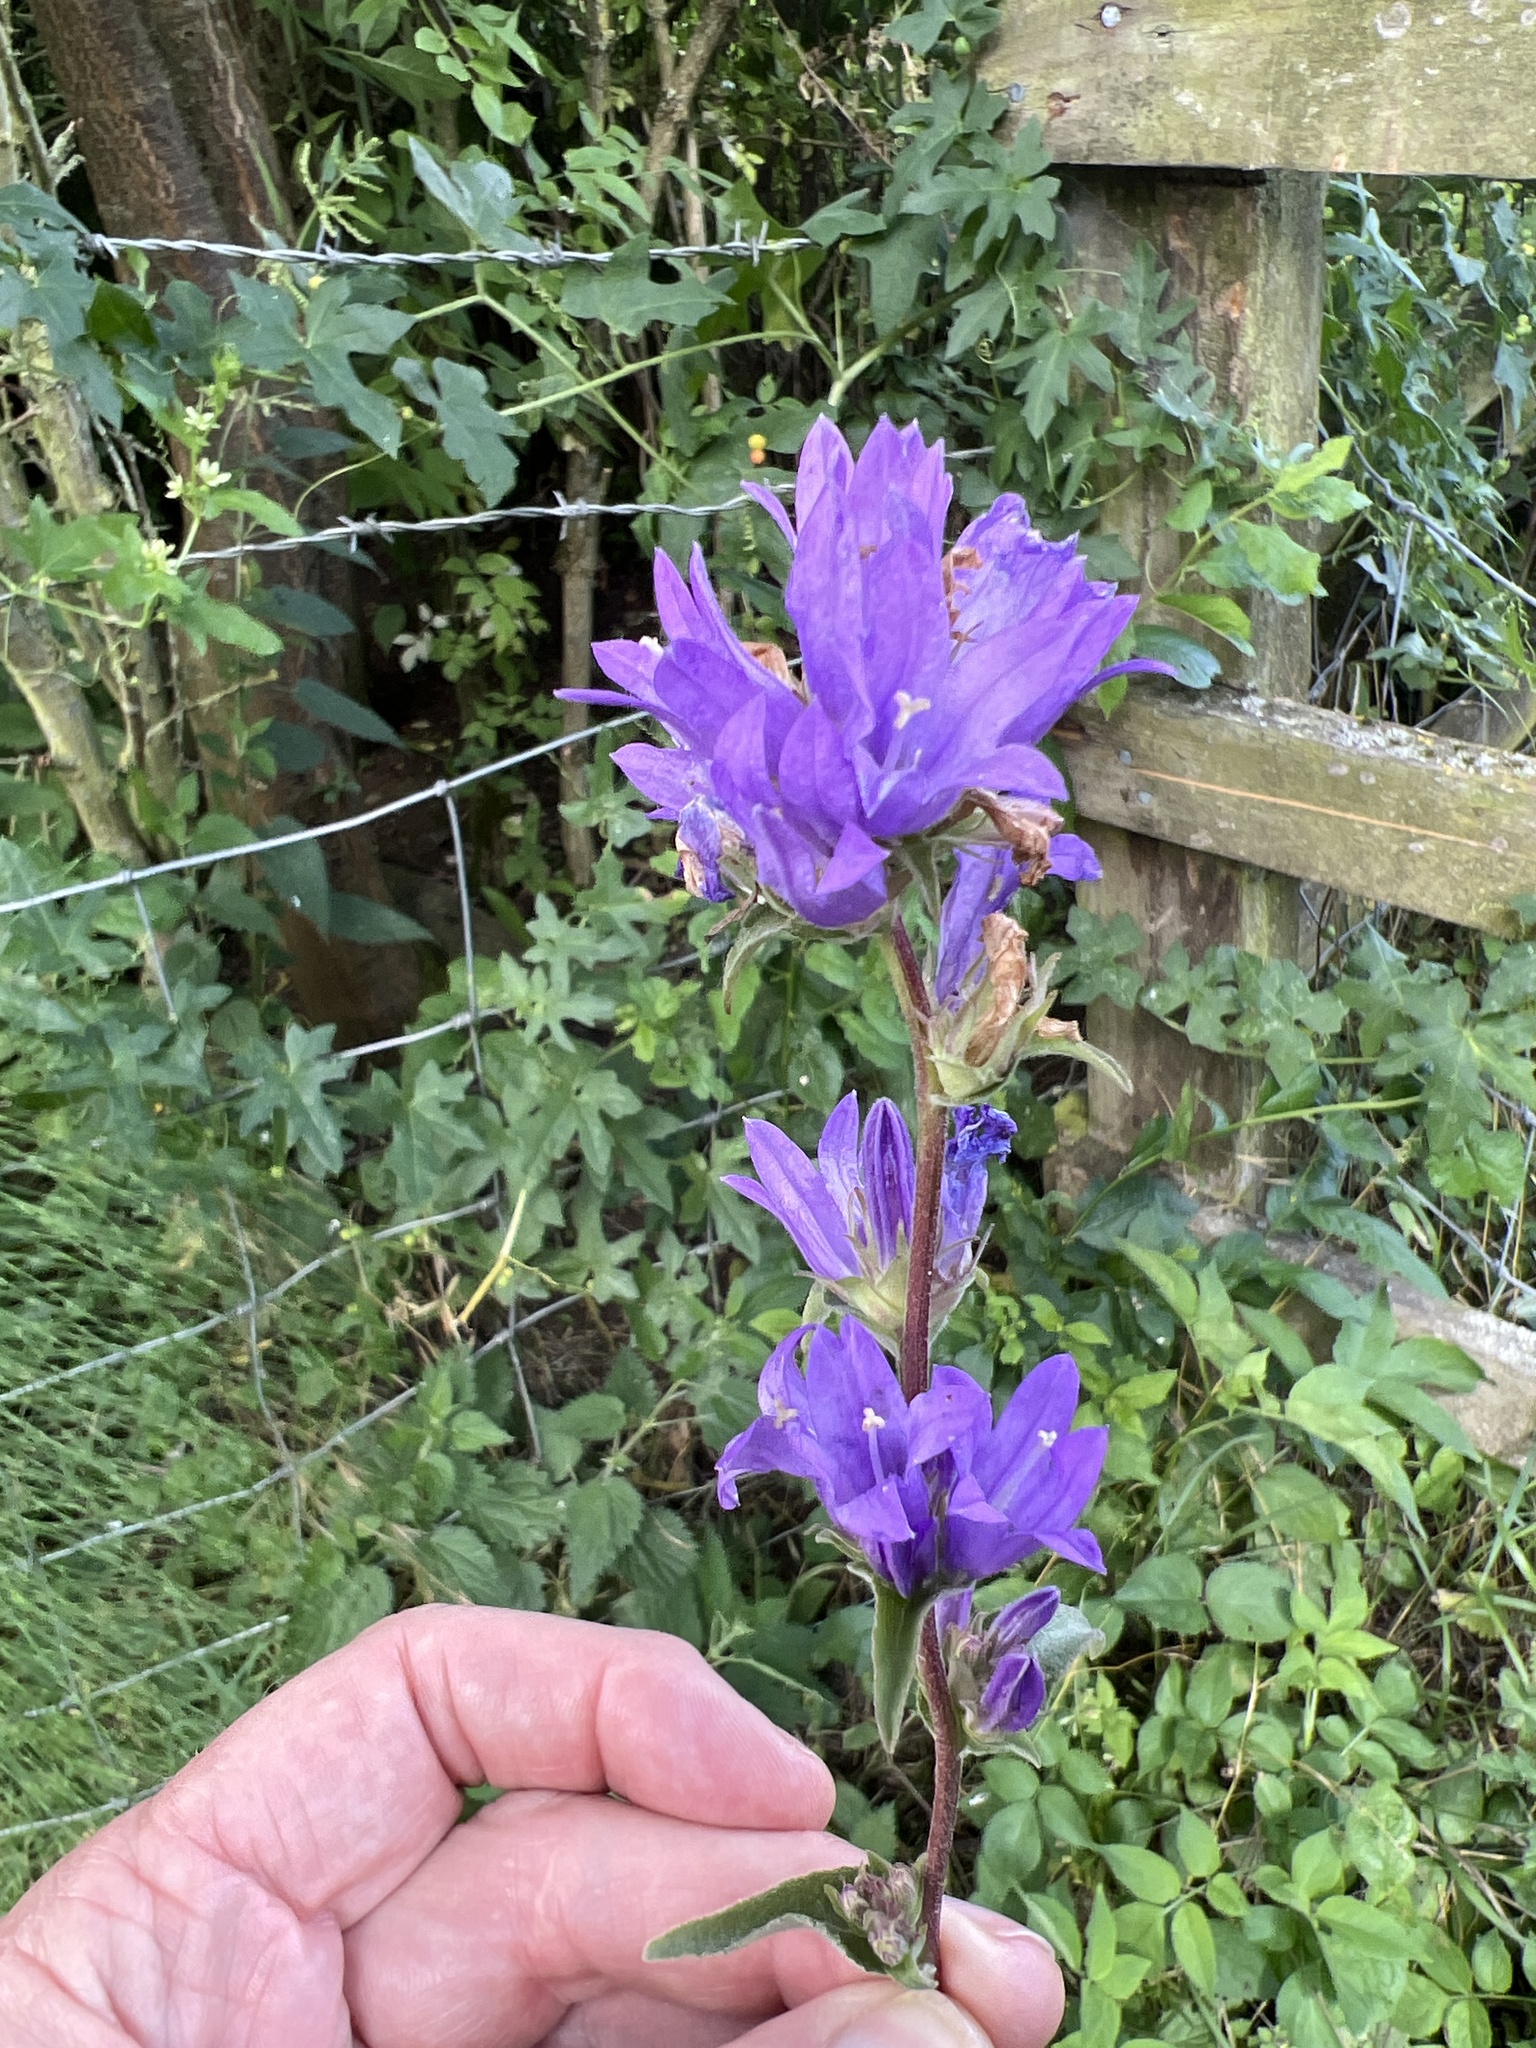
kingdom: Plantae
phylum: Tracheophyta
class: Magnoliopsida
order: Asterales
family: Campanulaceae
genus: Campanula
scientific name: Campanula glomerata
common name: Clustered bellflower
